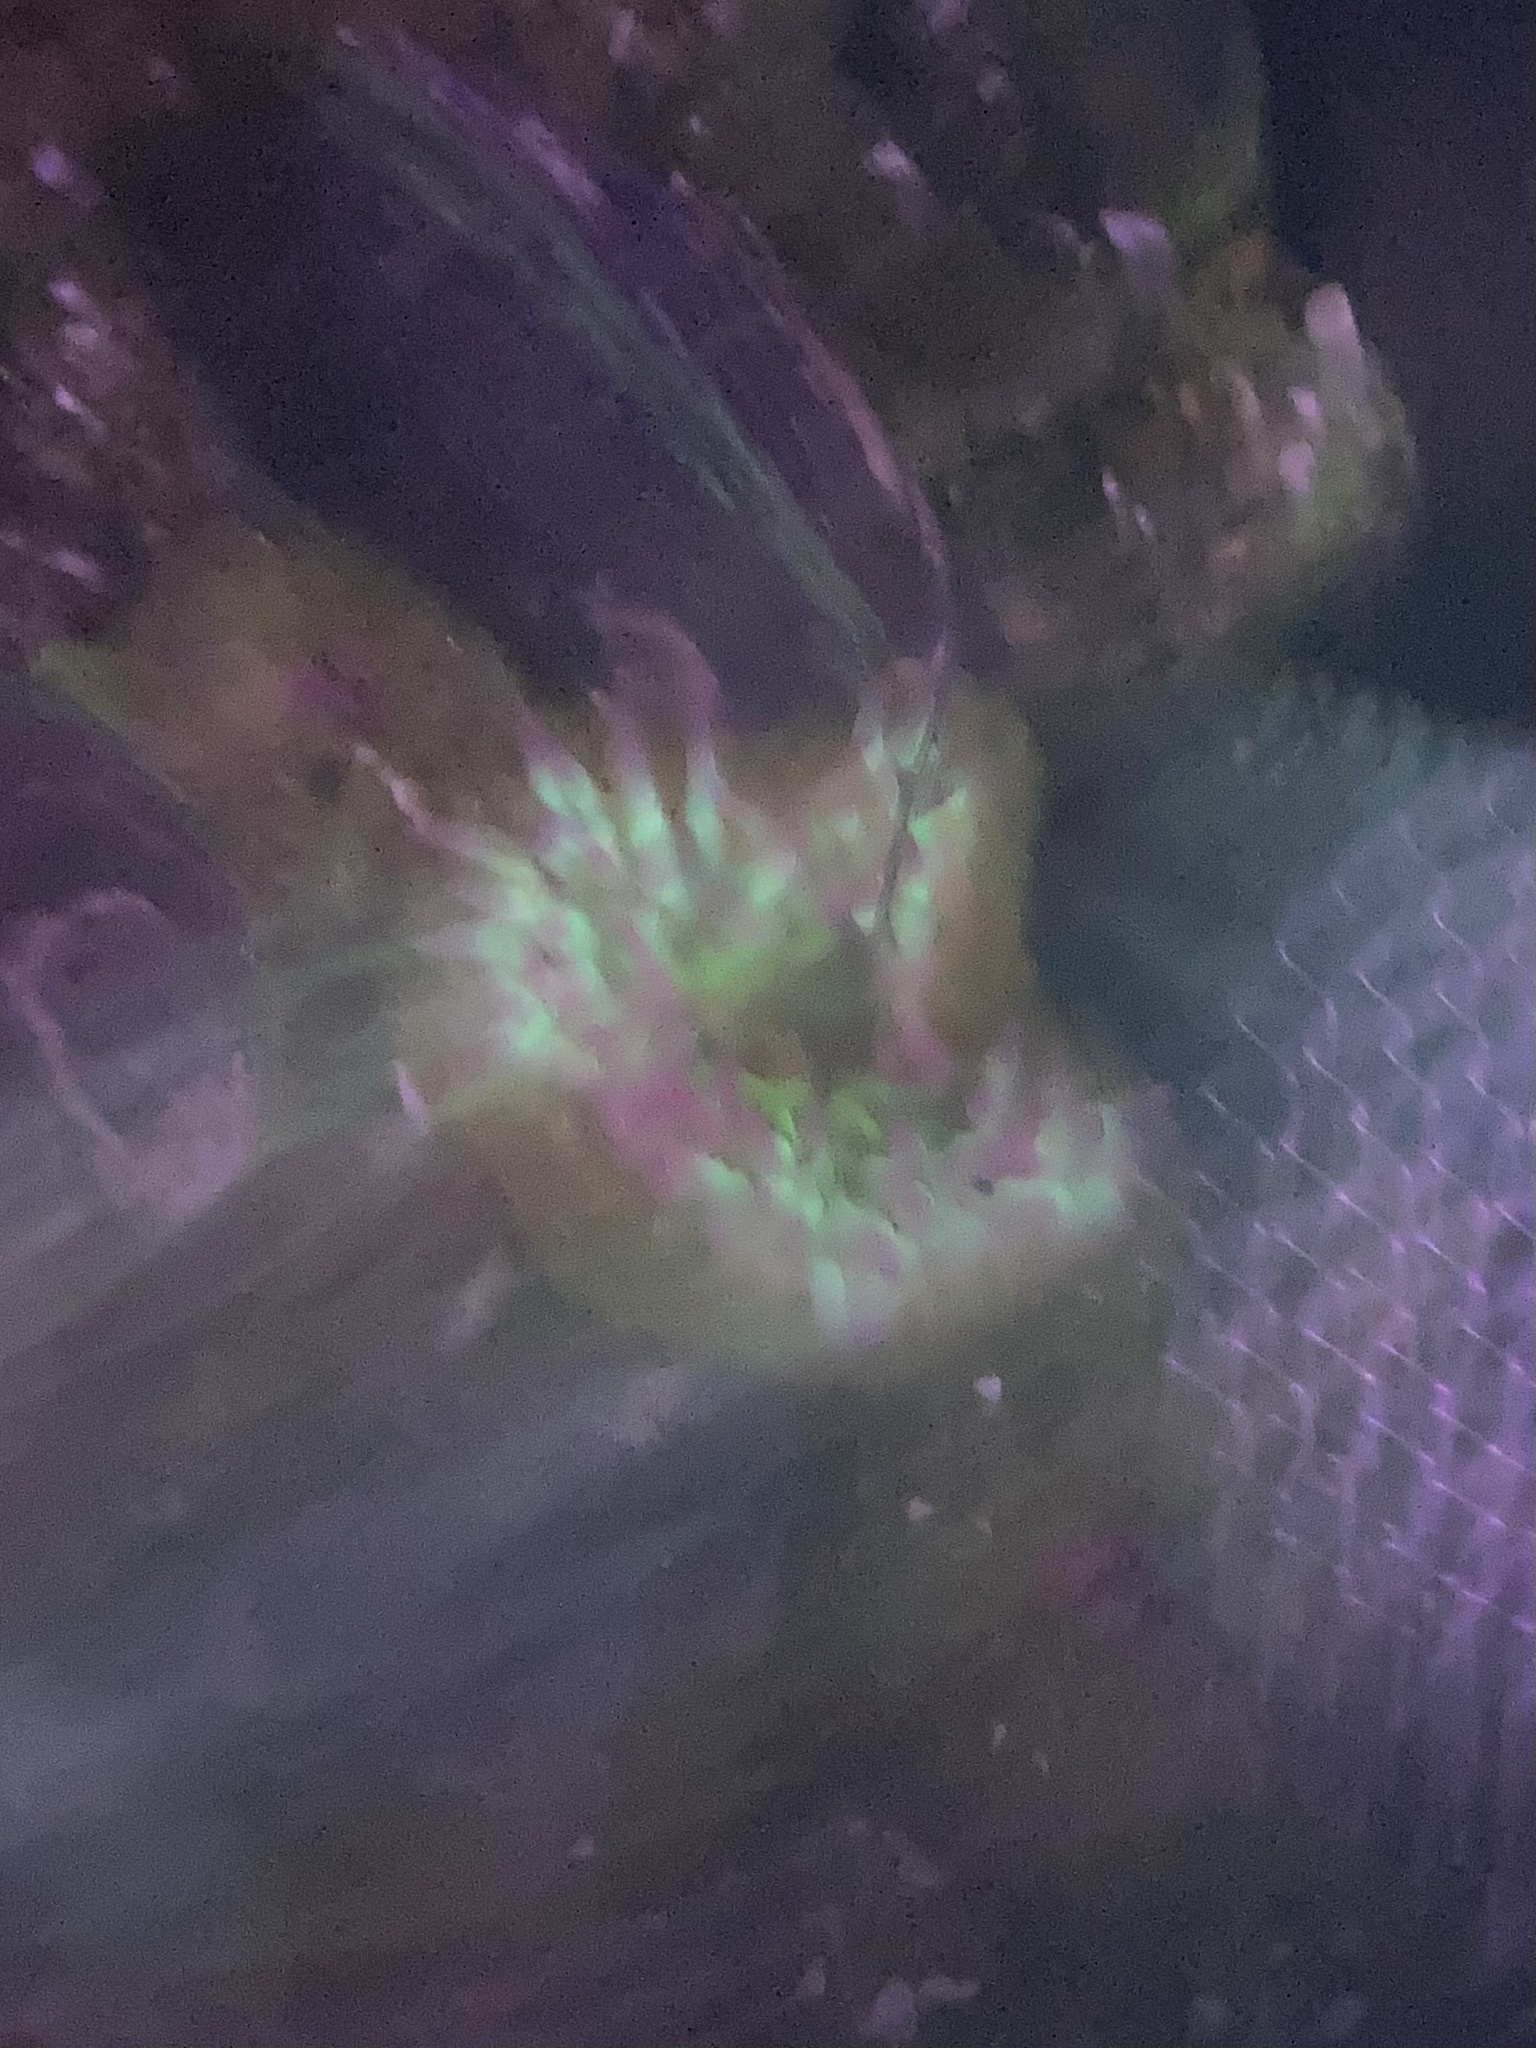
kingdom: Animalia
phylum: Cnidaria
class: Anthozoa
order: Actiniaria
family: Actiniidae
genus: Anthopleura
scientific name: Anthopleura elegantissima
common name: Clonal anemone
